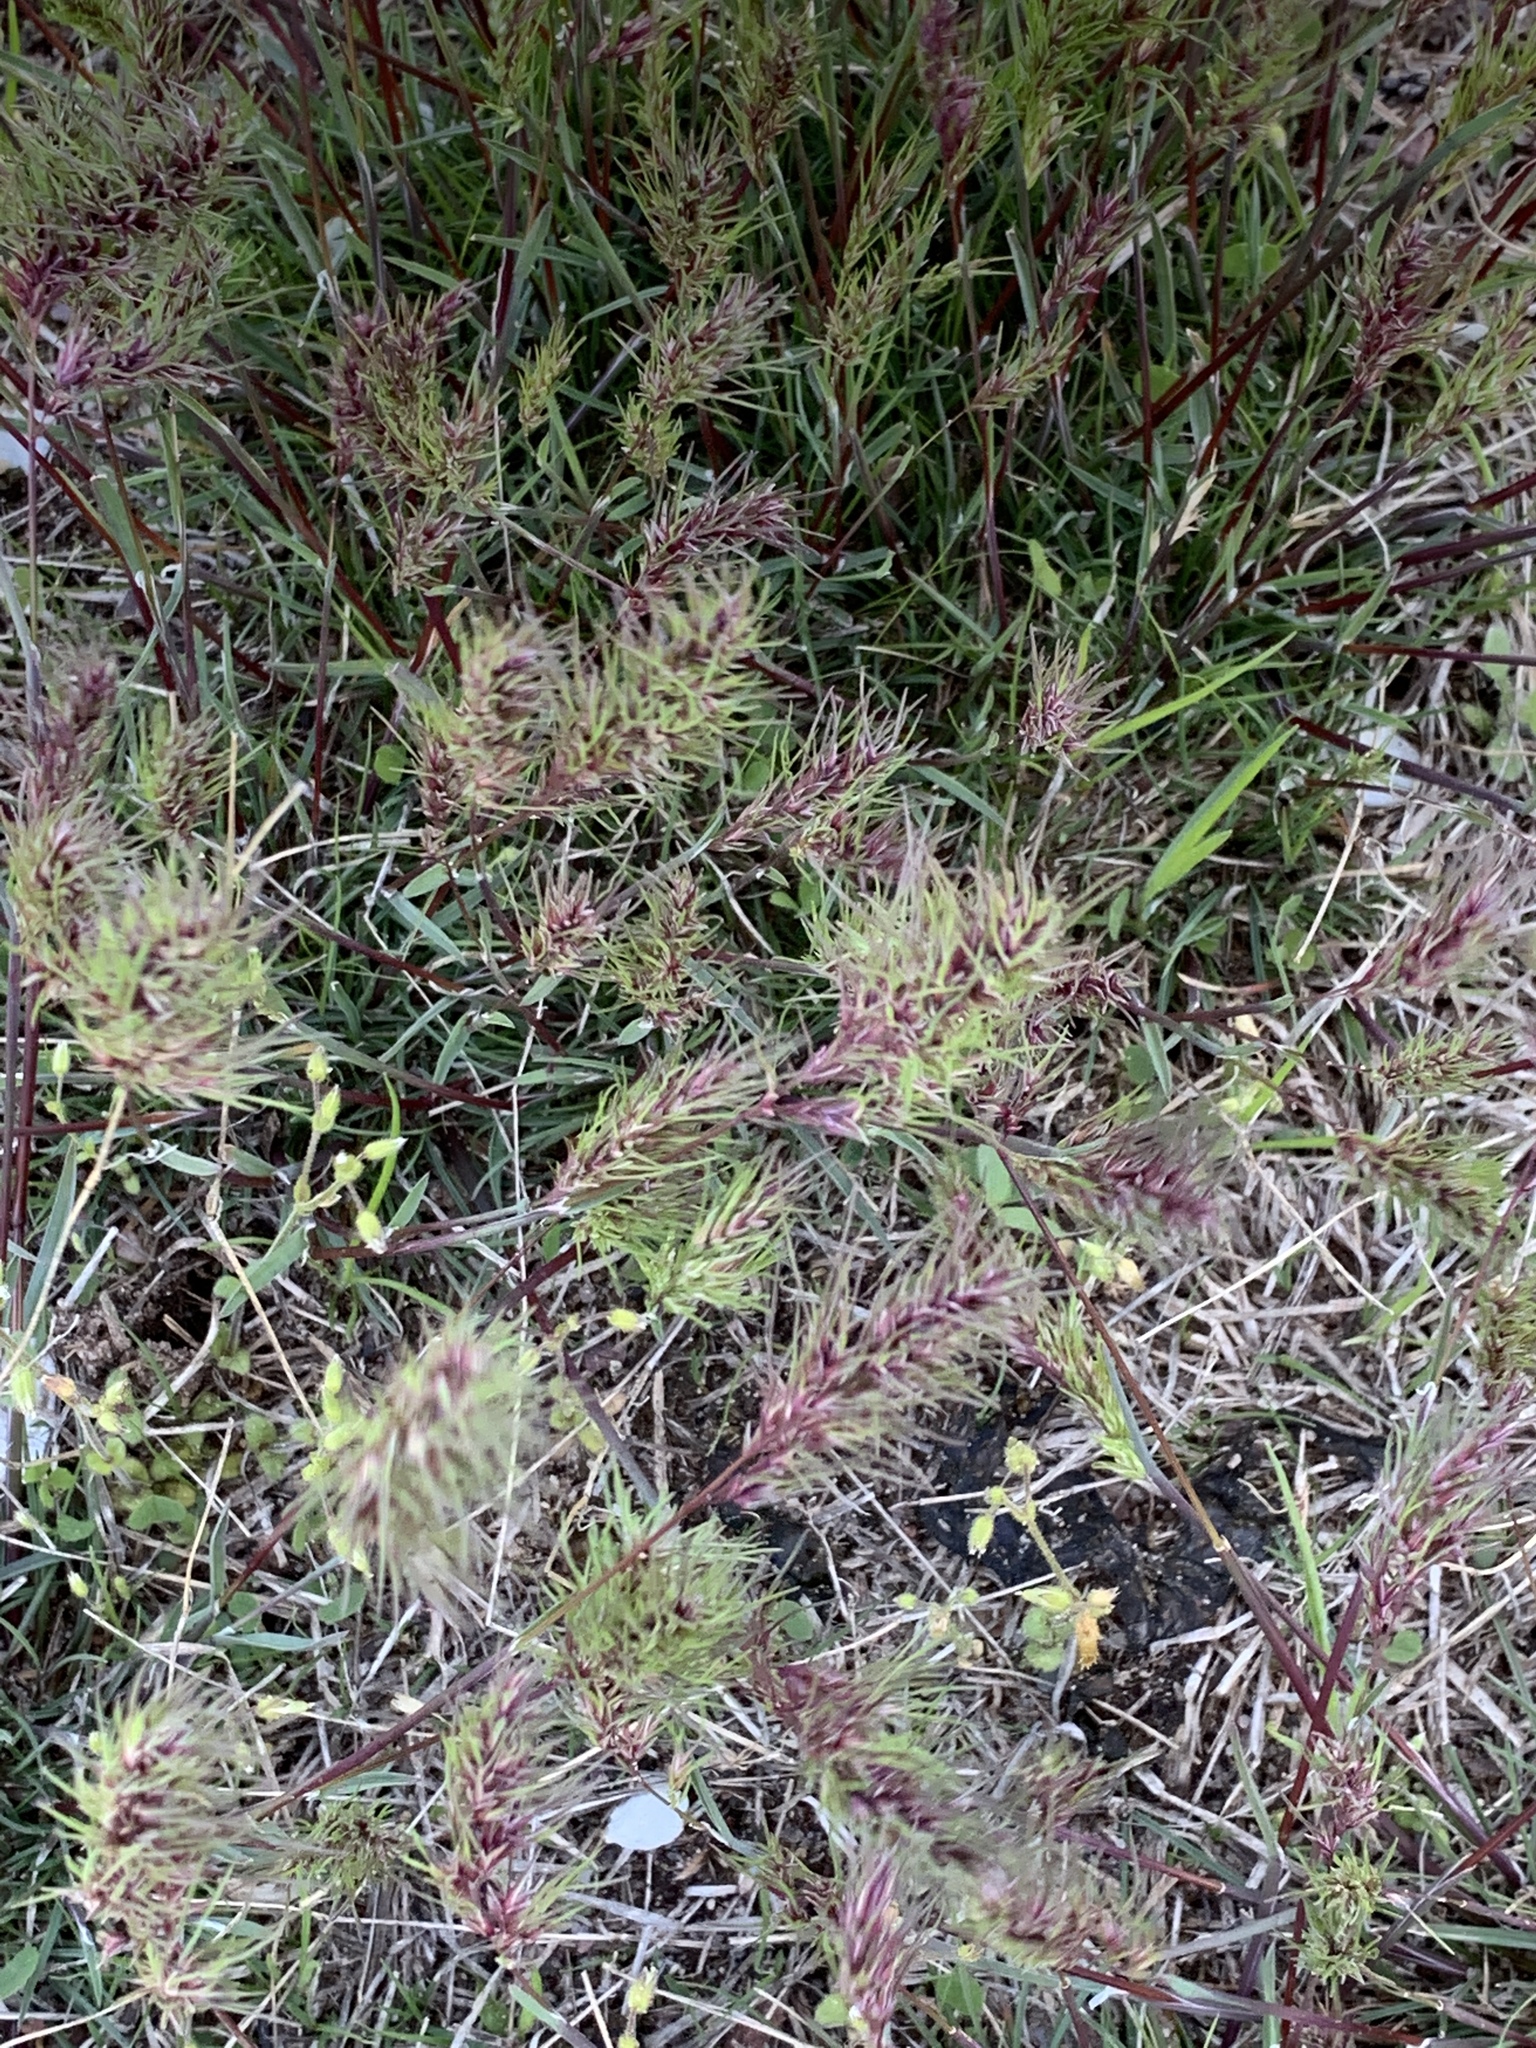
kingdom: Plantae
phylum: Tracheophyta
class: Liliopsida
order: Poales
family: Poaceae
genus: Poa
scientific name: Poa bulbosa
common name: Bulbous bluegrass
